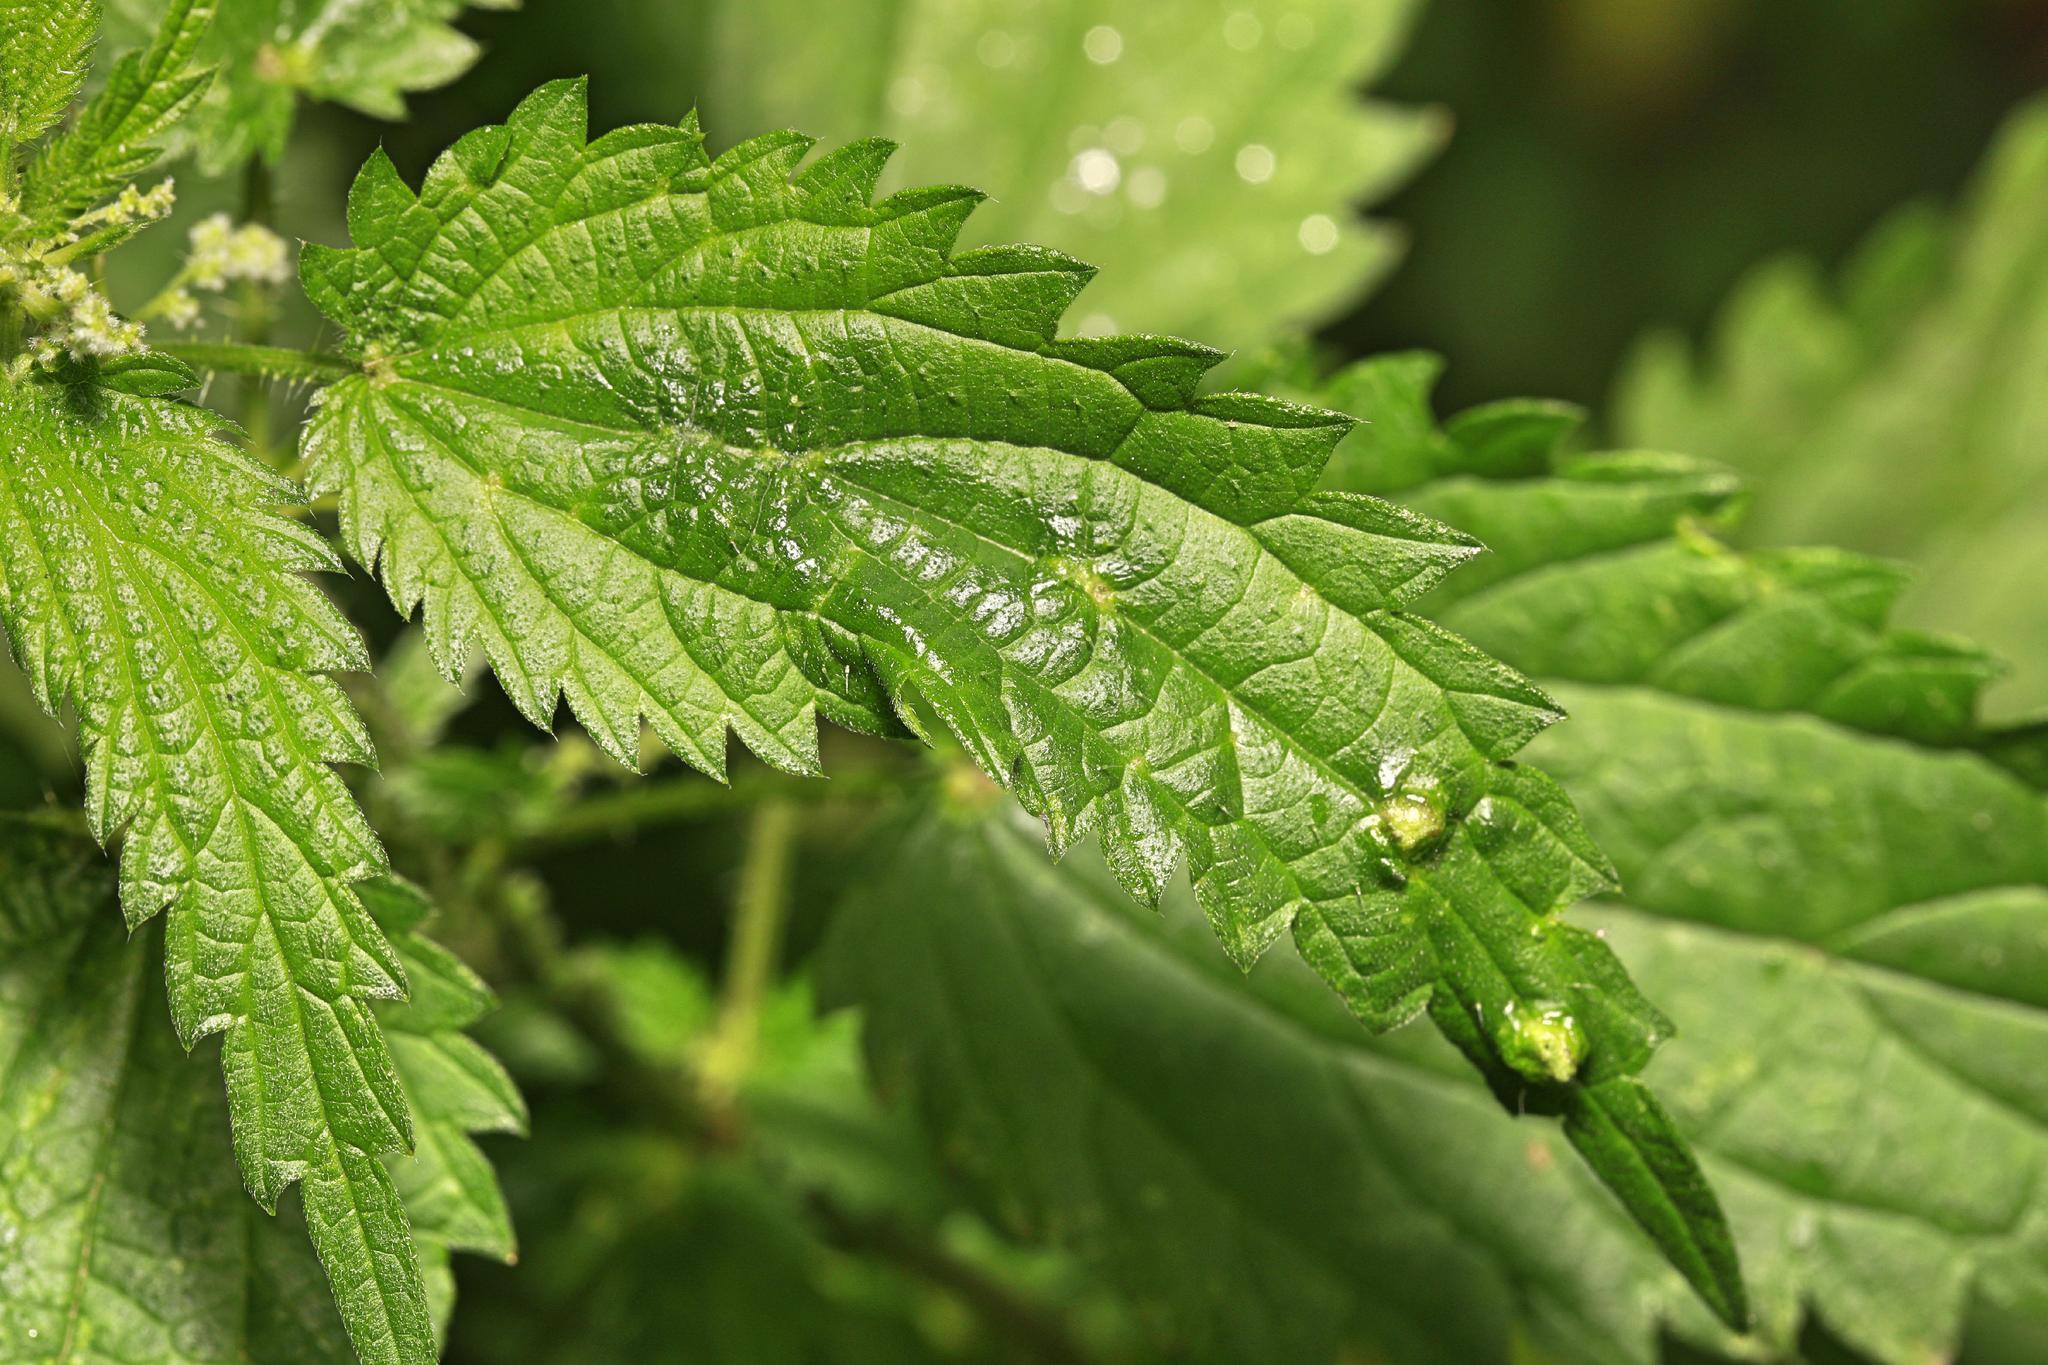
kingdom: Animalia
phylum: Arthropoda
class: Insecta
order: Diptera
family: Cecidomyiidae
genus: Dasineura
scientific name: Dasineura urticae
